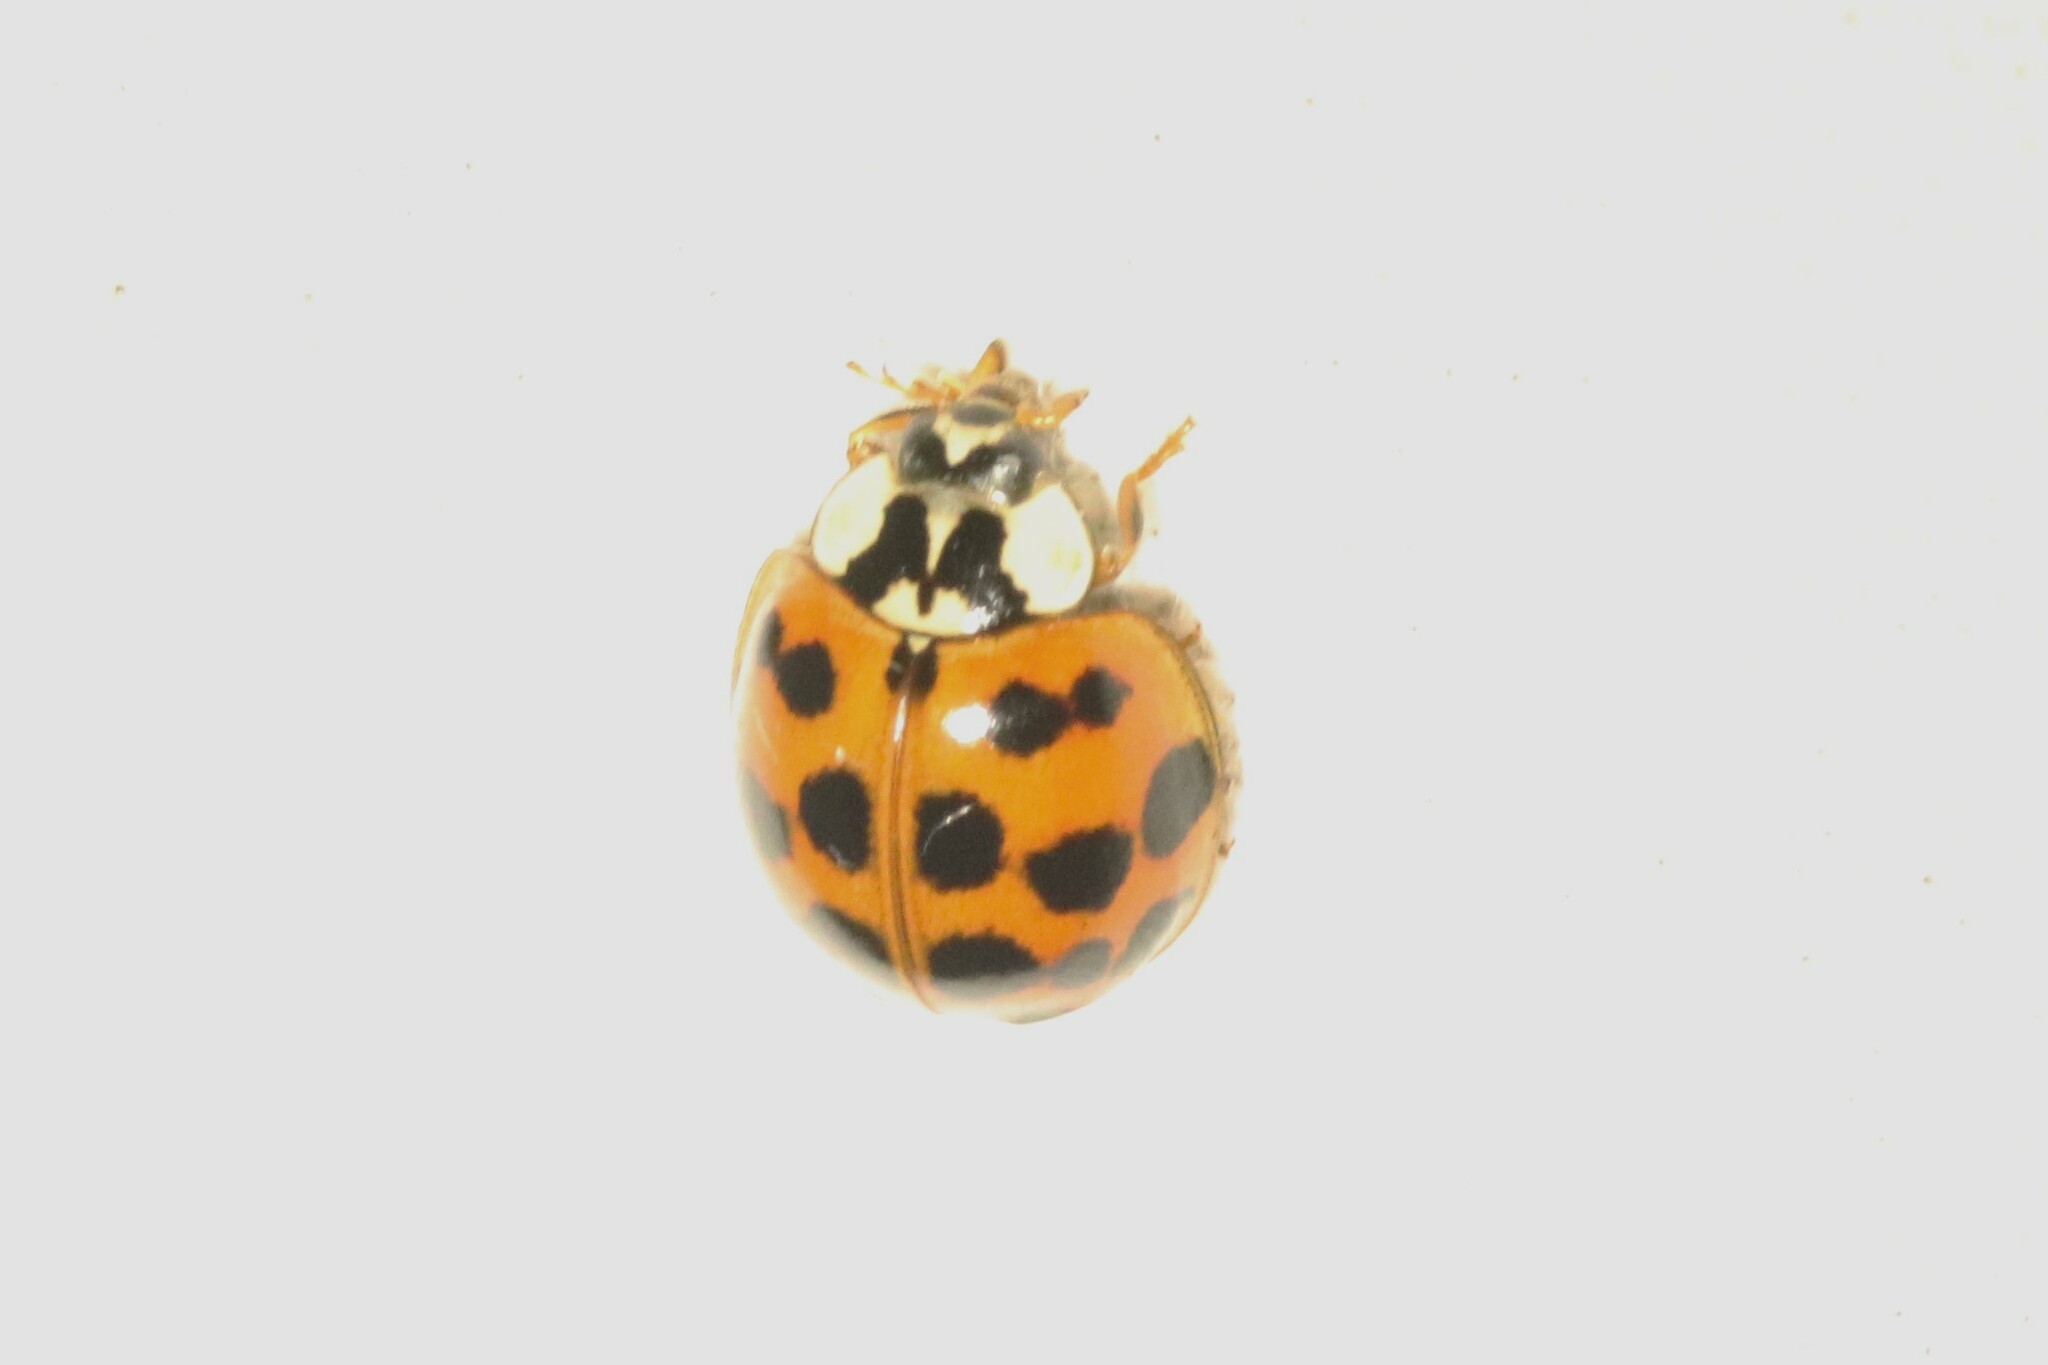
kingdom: Animalia
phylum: Arthropoda
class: Insecta
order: Coleoptera
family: Coccinellidae
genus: Harmonia
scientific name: Harmonia axyridis
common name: Harlequin ladybird
